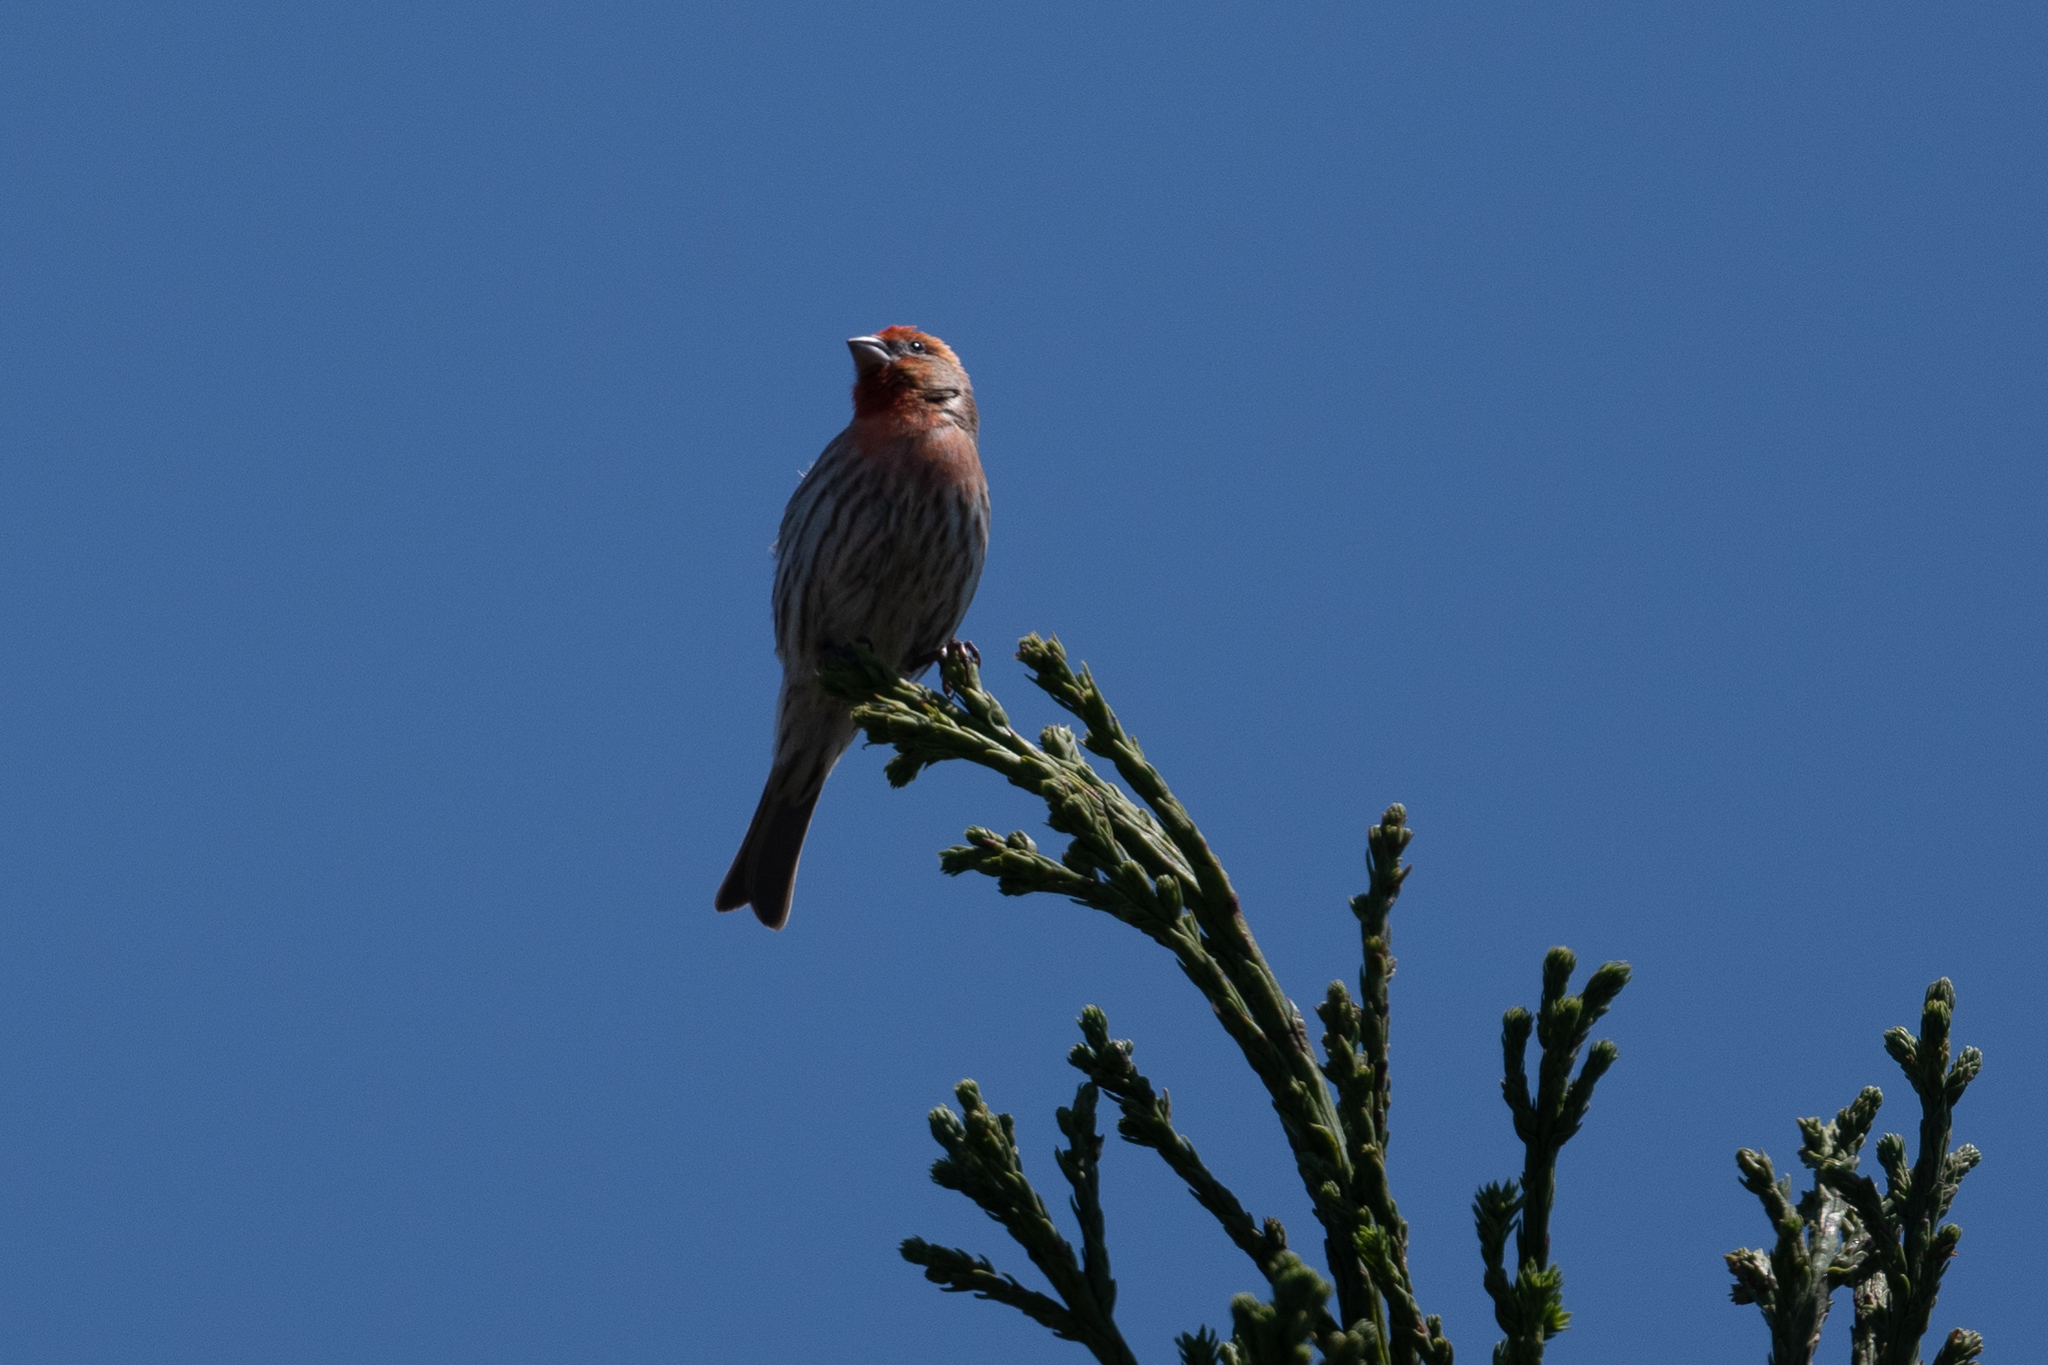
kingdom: Animalia
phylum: Chordata
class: Aves
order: Passeriformes
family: Fringillidae
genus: Haemorhous
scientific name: Haemorhous mexicanus
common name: House finch
